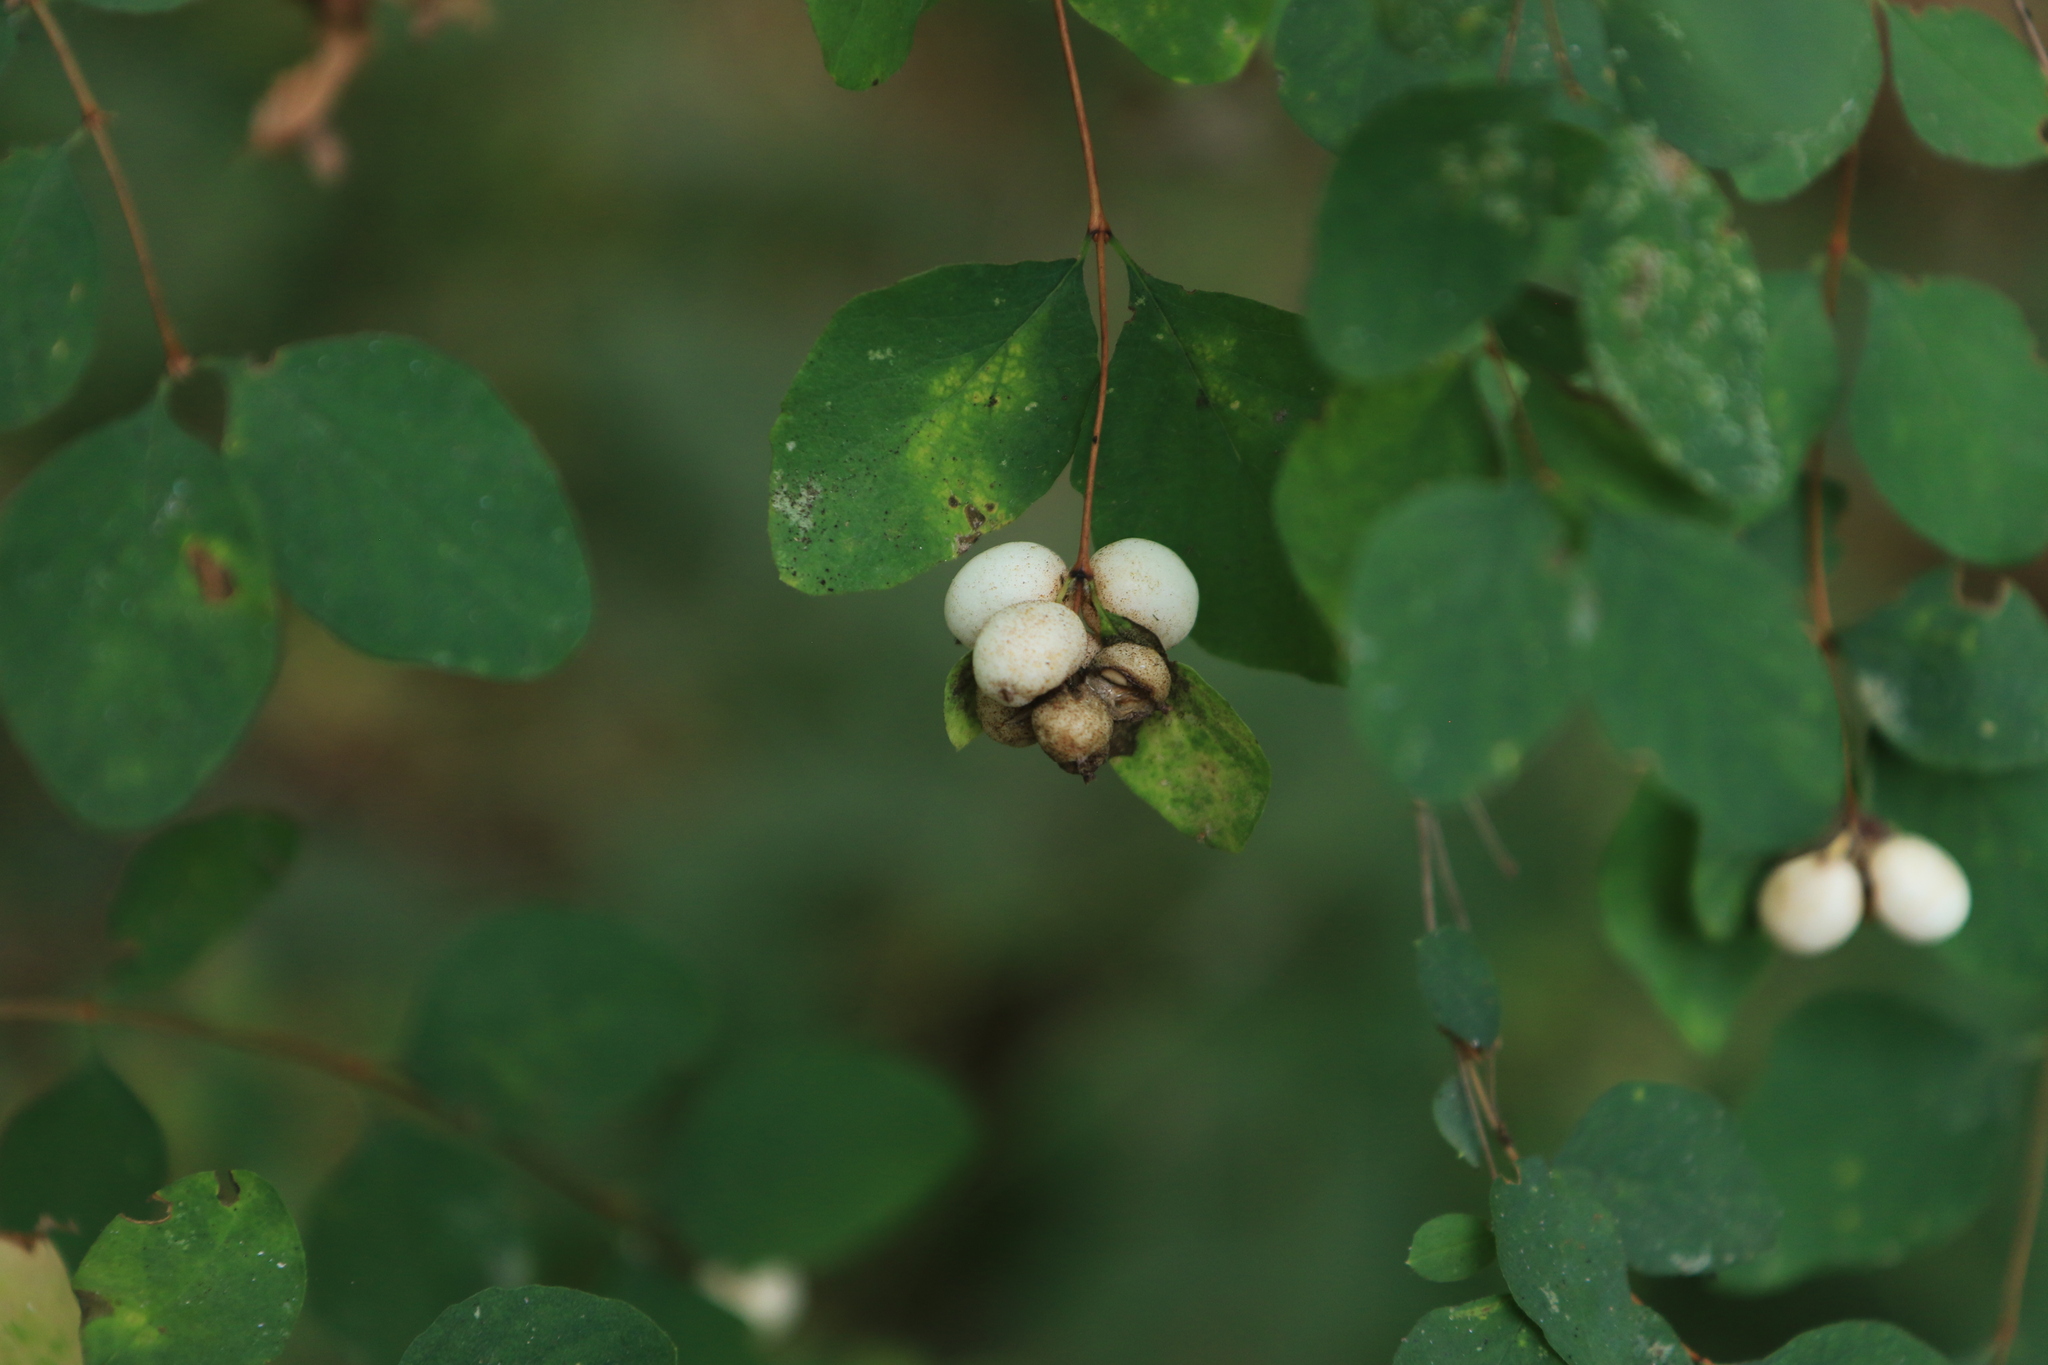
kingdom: Plantae
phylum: Tracheophyta
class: Magnoliopsida
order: Dipsacales
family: Caprifoliaceae
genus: Symphoricarpos
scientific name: Symphoricarpos albus
